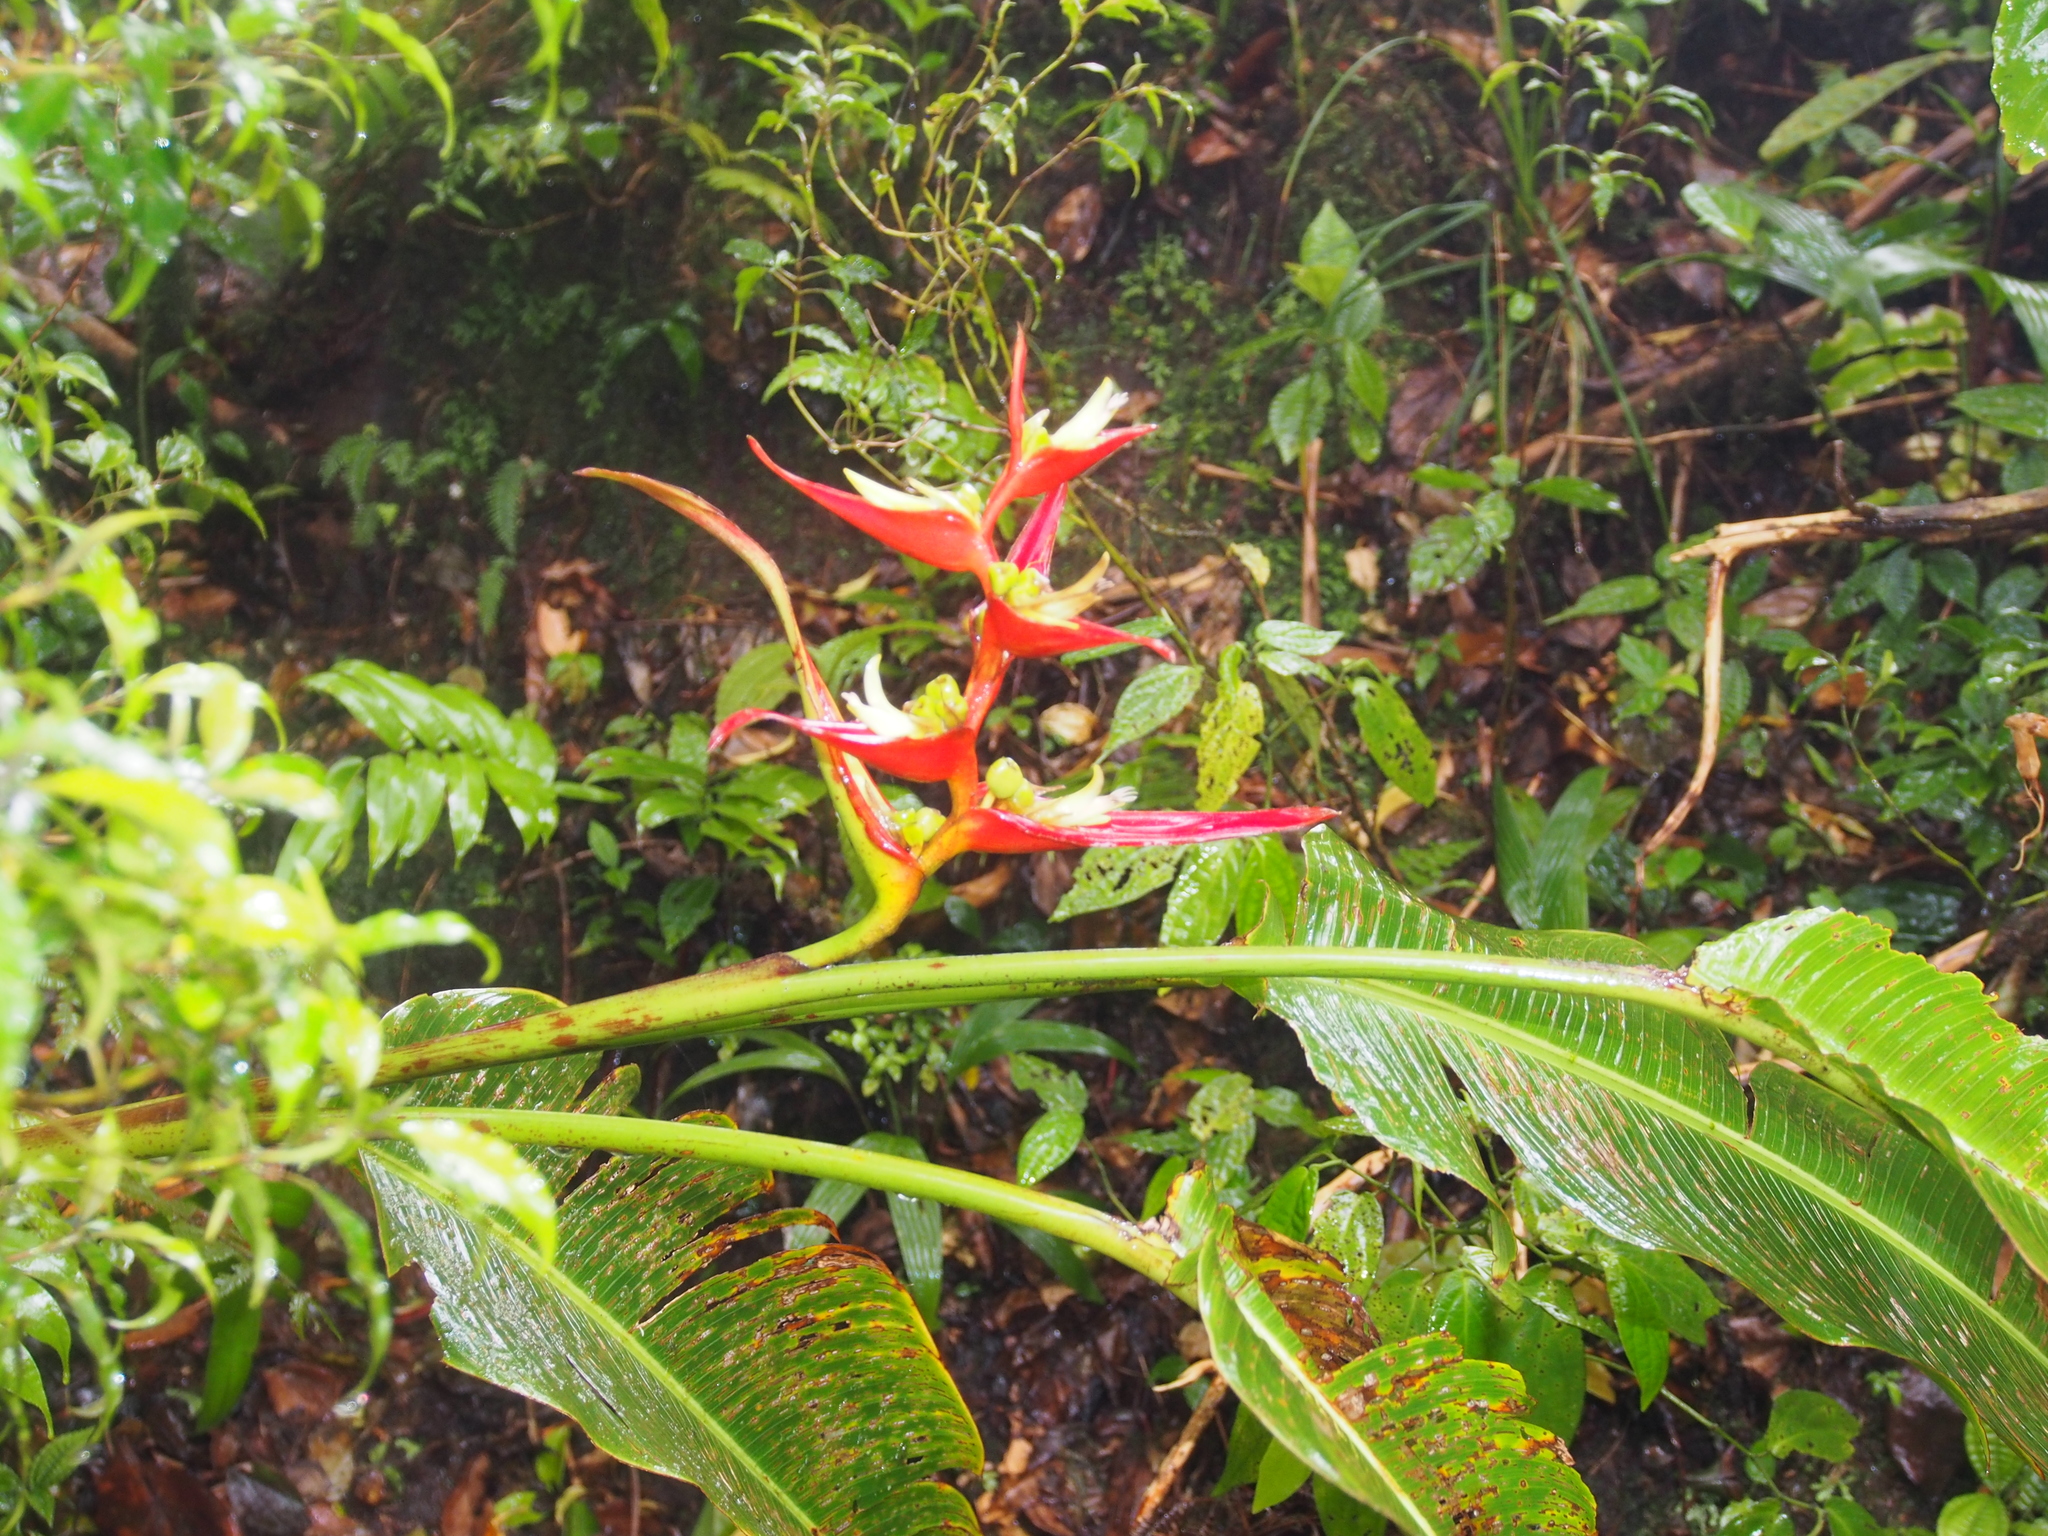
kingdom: Plantae
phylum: Tracheophyta
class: Liliopsida
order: Zingiberales
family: Heliconiaceae
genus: Heliconia
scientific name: Heliconia monteverdensis
